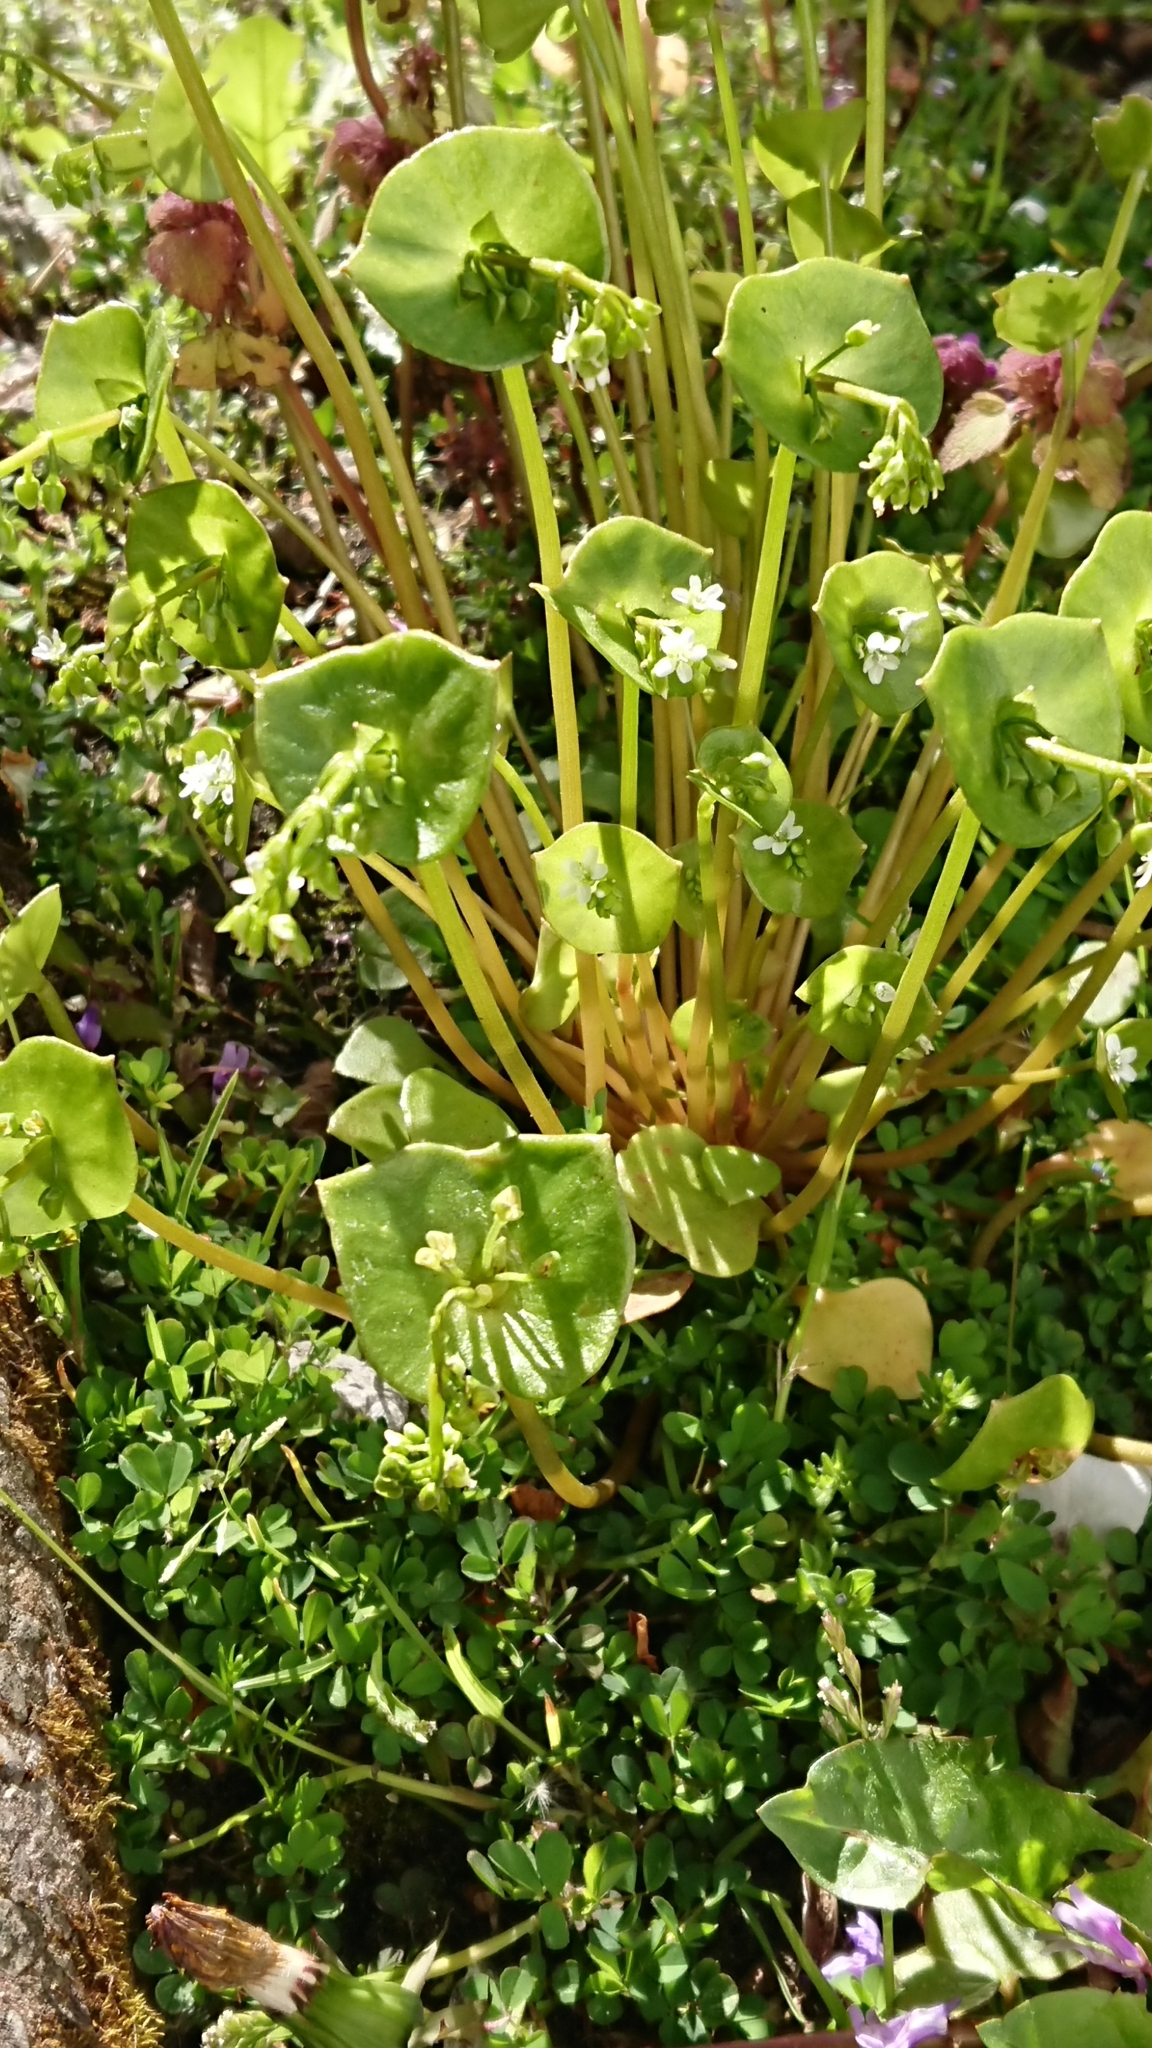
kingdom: Plantae
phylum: Tracheophyta
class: Magnoliopsida
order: Caryophyllales
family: Montiaceae
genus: Claytonia
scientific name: Claytonia perfoliata
